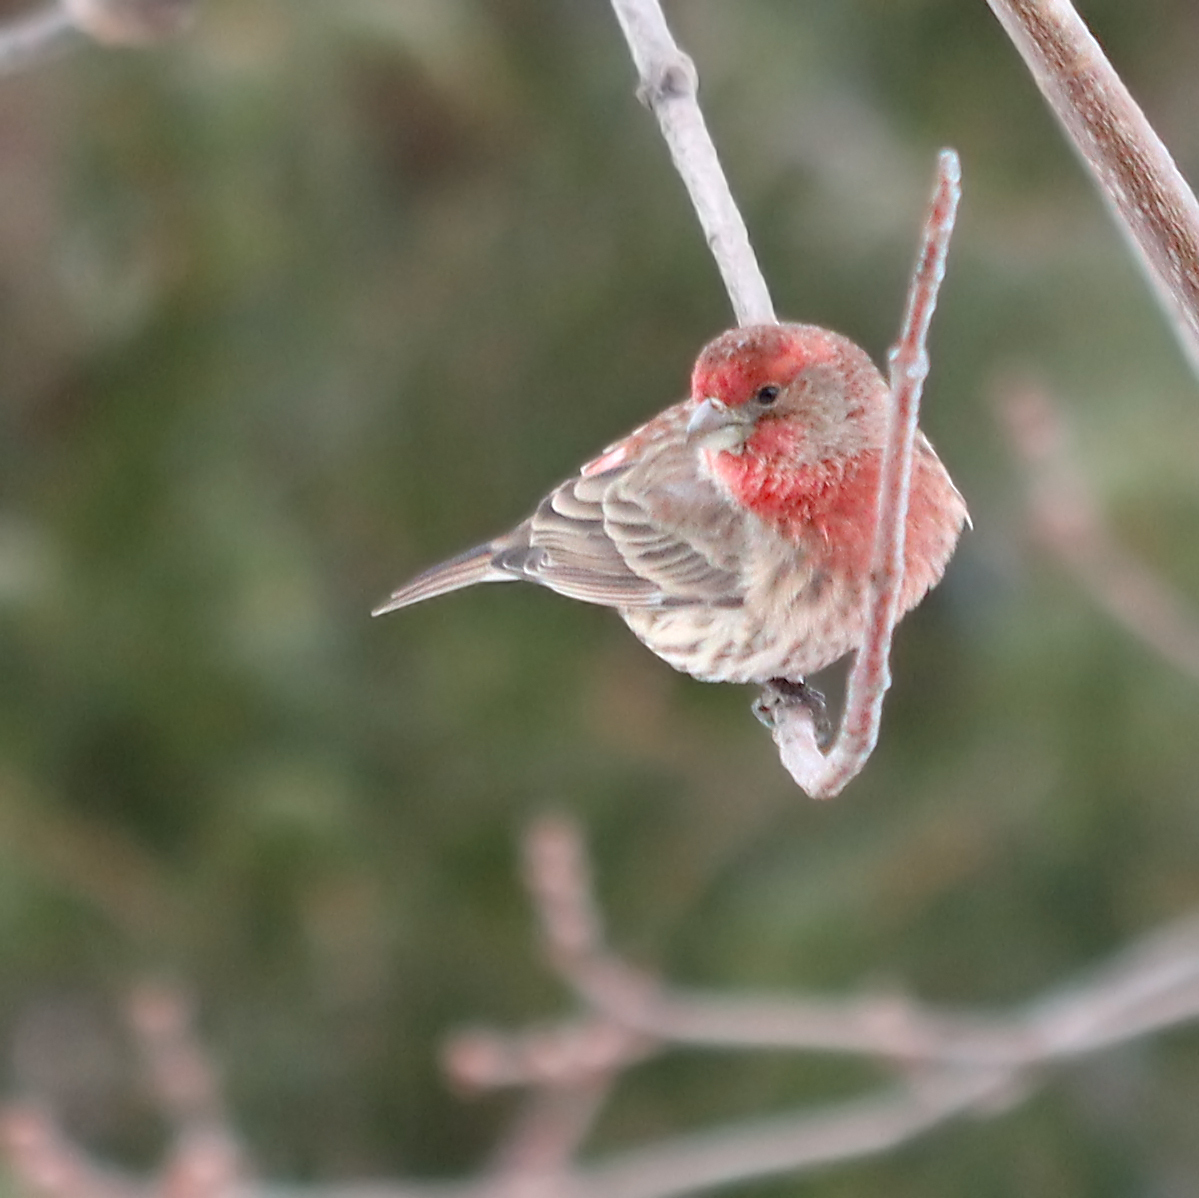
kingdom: Animalia
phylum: Chordata
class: Aves
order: Passeriformes
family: Fringillidae
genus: Haemorhous
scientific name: Haemorhous mexicanus
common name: House finch
